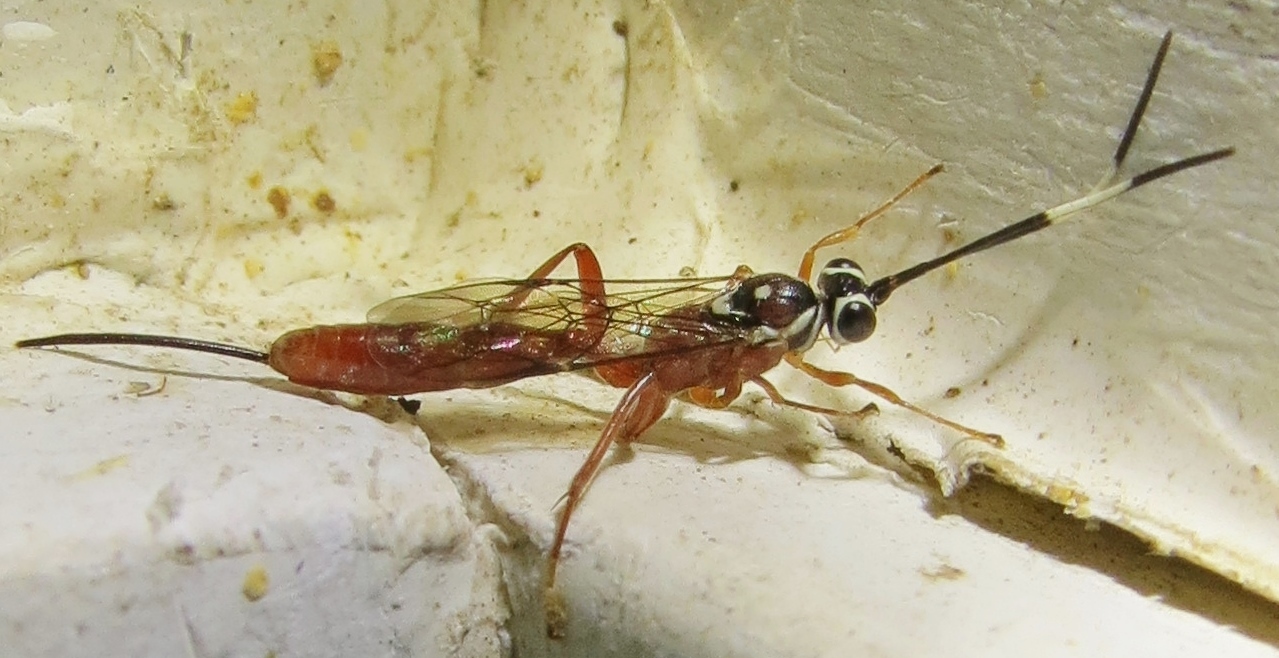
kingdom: Animalia
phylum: Arthropoda
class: Insecta
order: Hymenoptera
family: Ichneumonidae
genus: Mesostenus
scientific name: Mesostenus thoracicus
